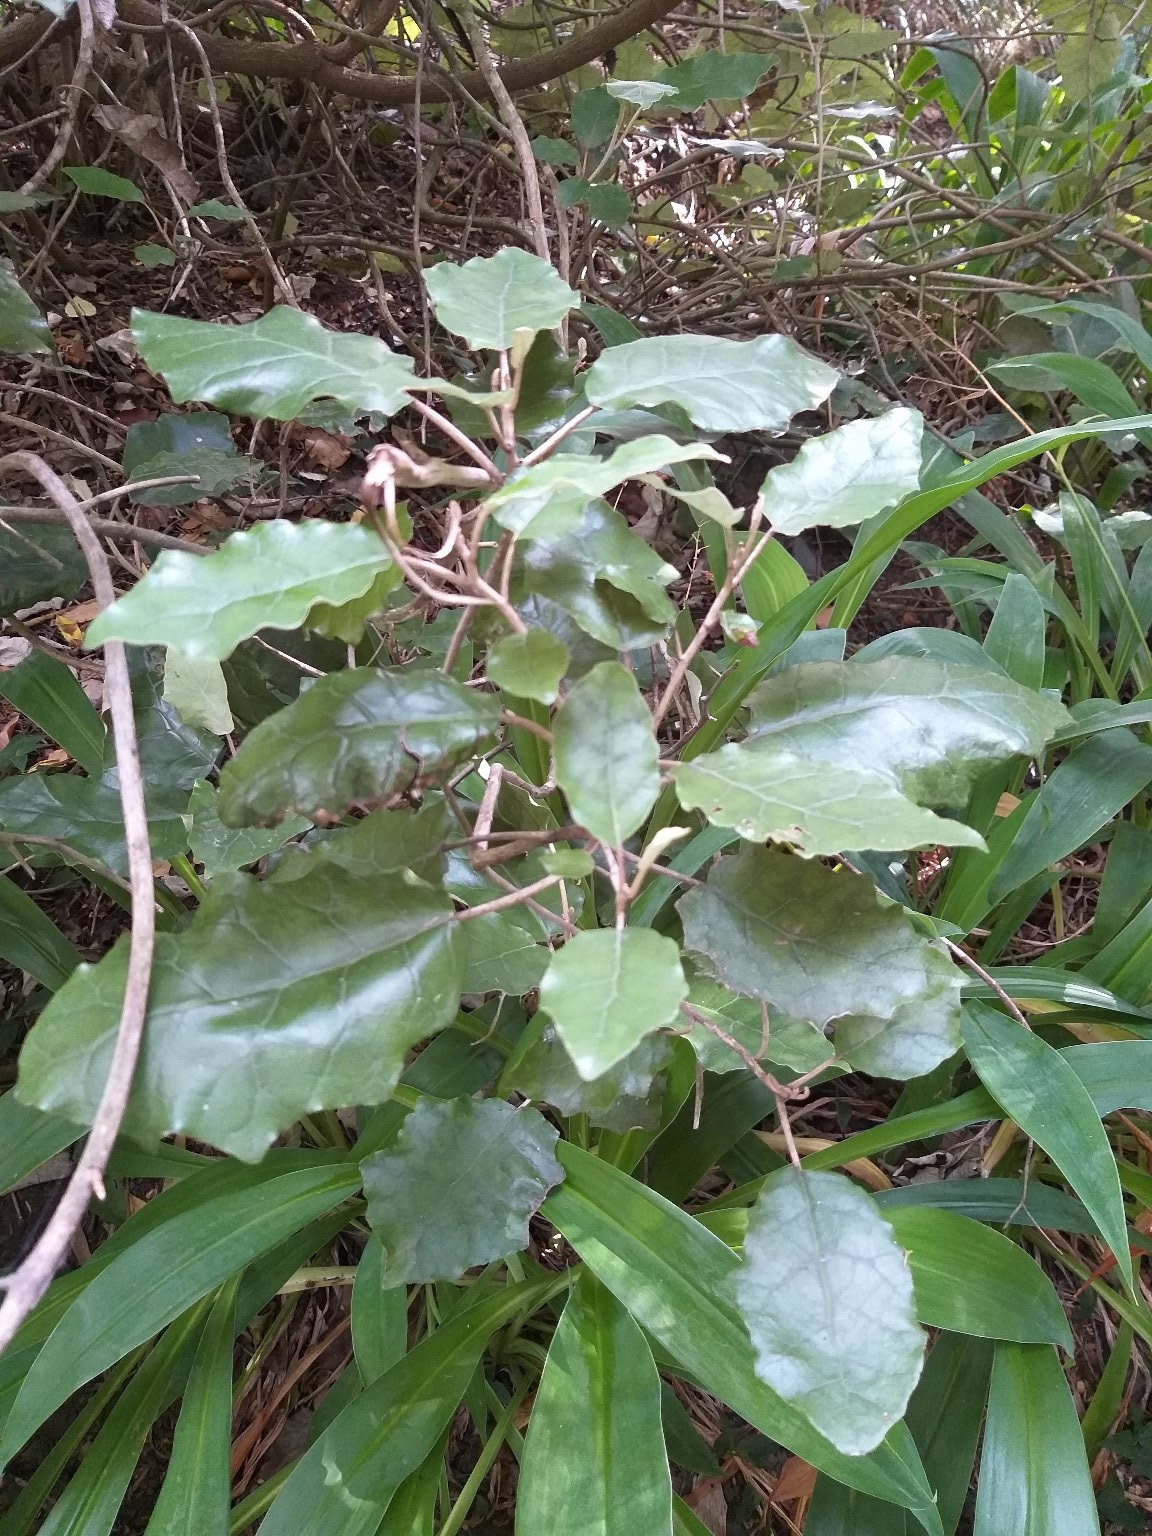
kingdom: Plantae
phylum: Tracheophyta
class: Magnoliopsida
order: Asterales
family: Asteraceae
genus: Brachyglottis
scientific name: Brachyglottis repanda
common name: Hedge ragwort
